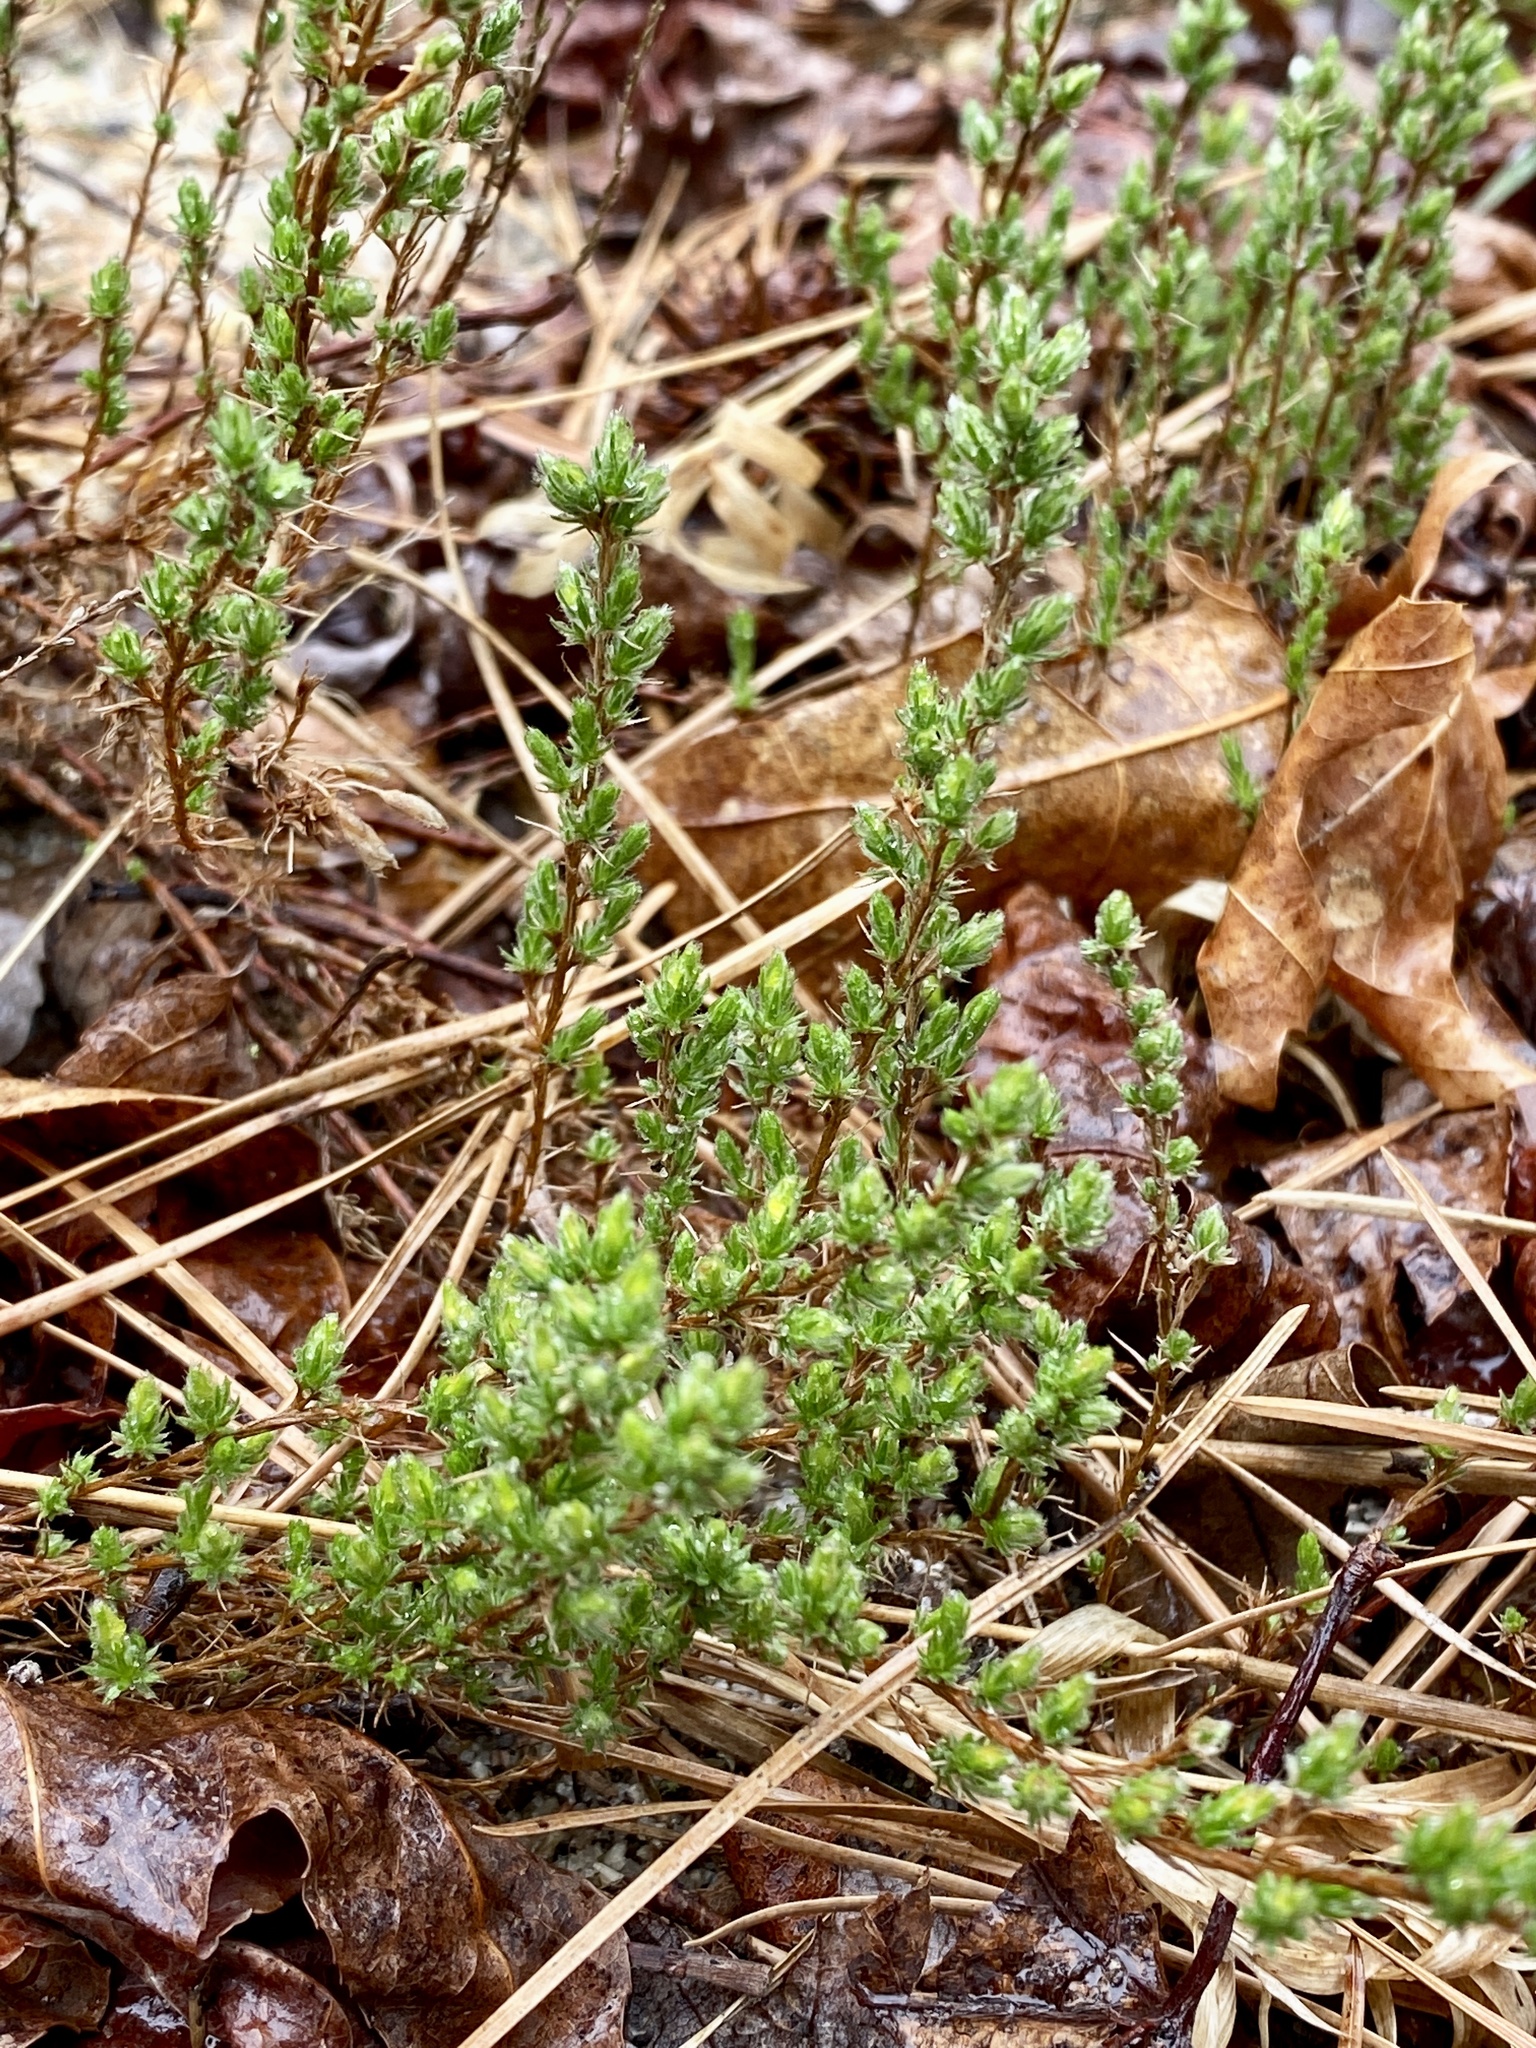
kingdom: Plantae
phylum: Tracheophyta
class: Magnoliopsida
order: Malvales
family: Cistaceae
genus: Hudsonia
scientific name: Hudsonia ericoides
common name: Golden-heather
